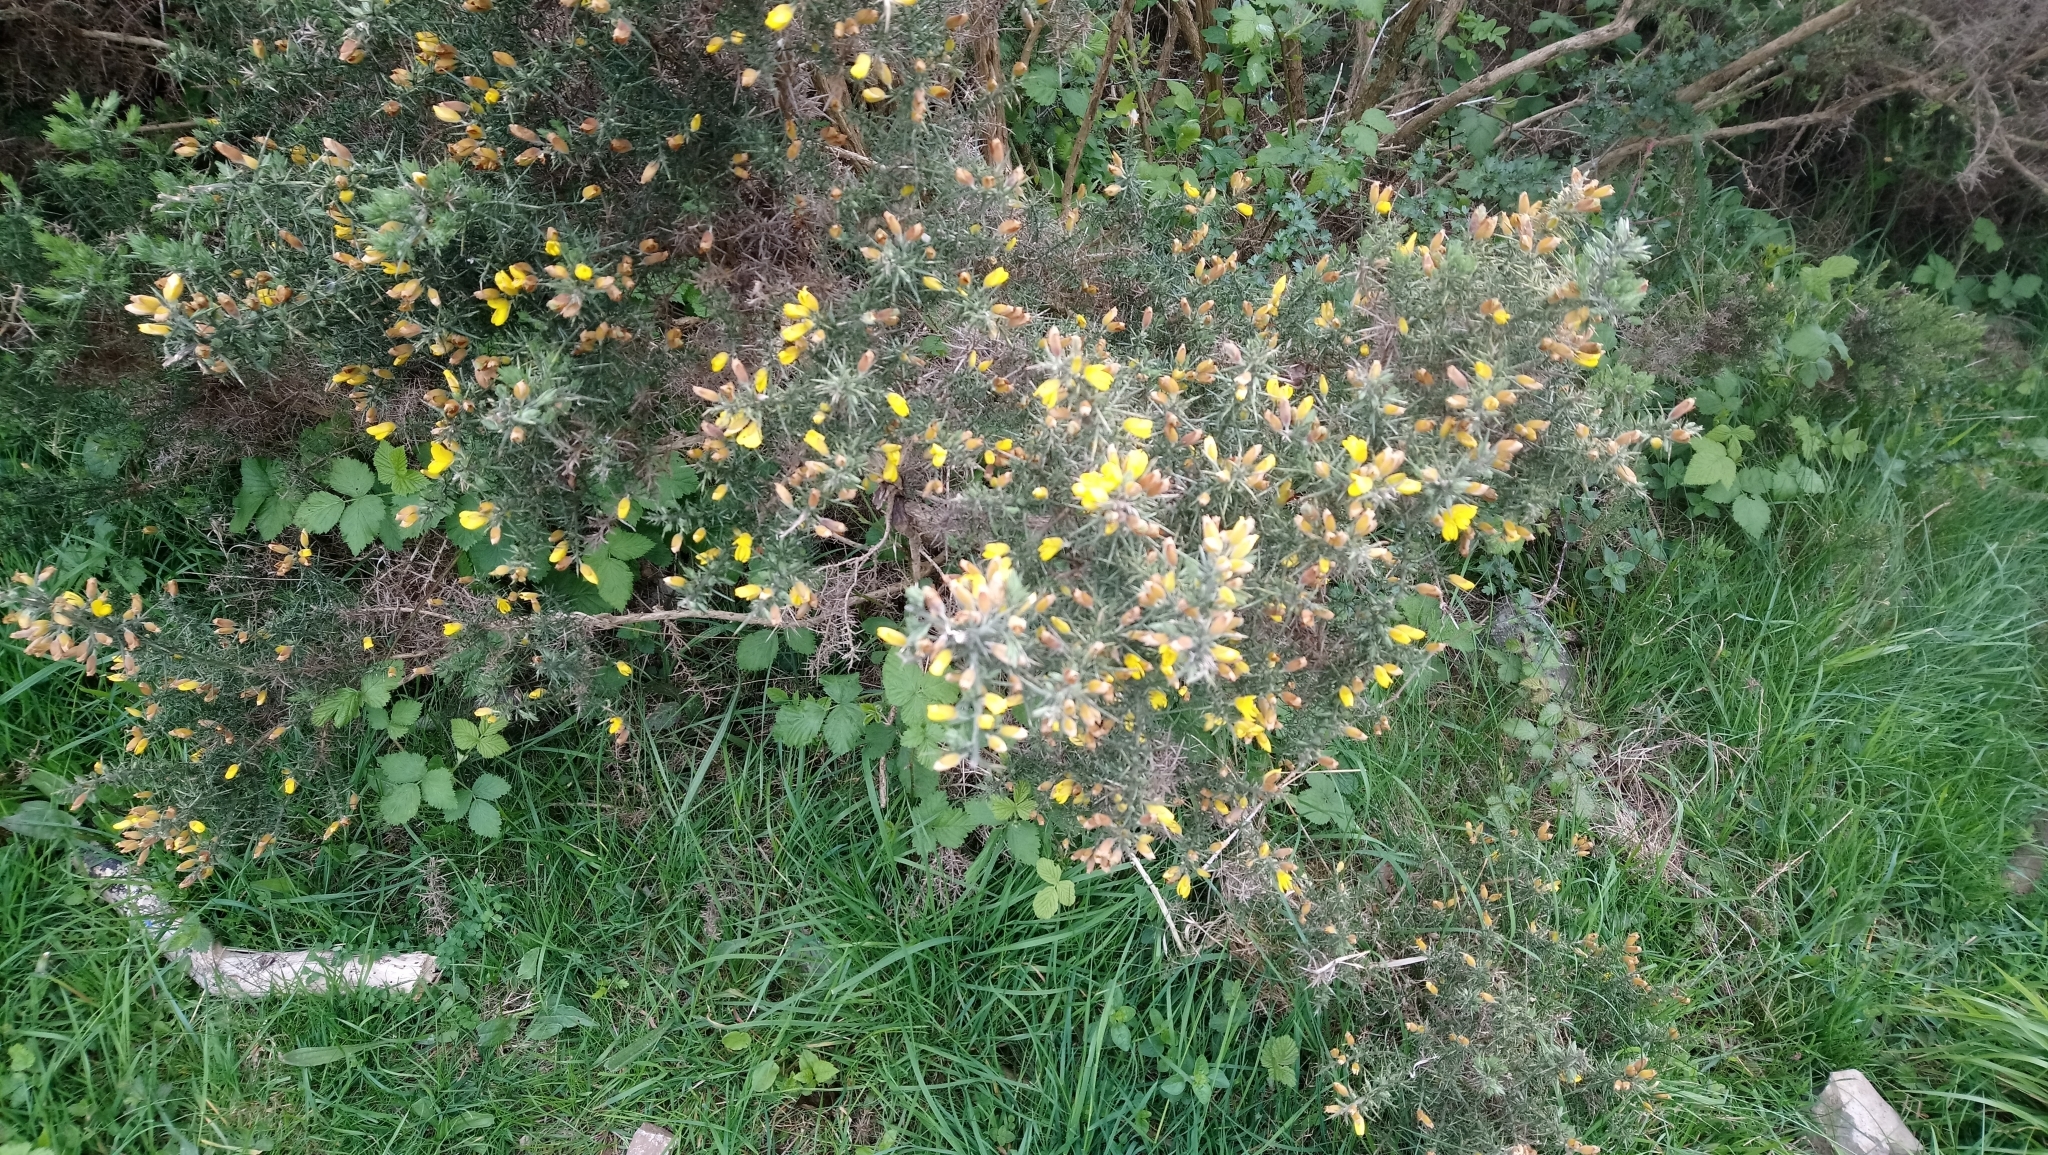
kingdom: Plantae
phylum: Tracheophyta
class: Magnoliopsida
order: Fabales
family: Fabaceae
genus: Ulex
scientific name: Ulex europaeus
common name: Common gorse
